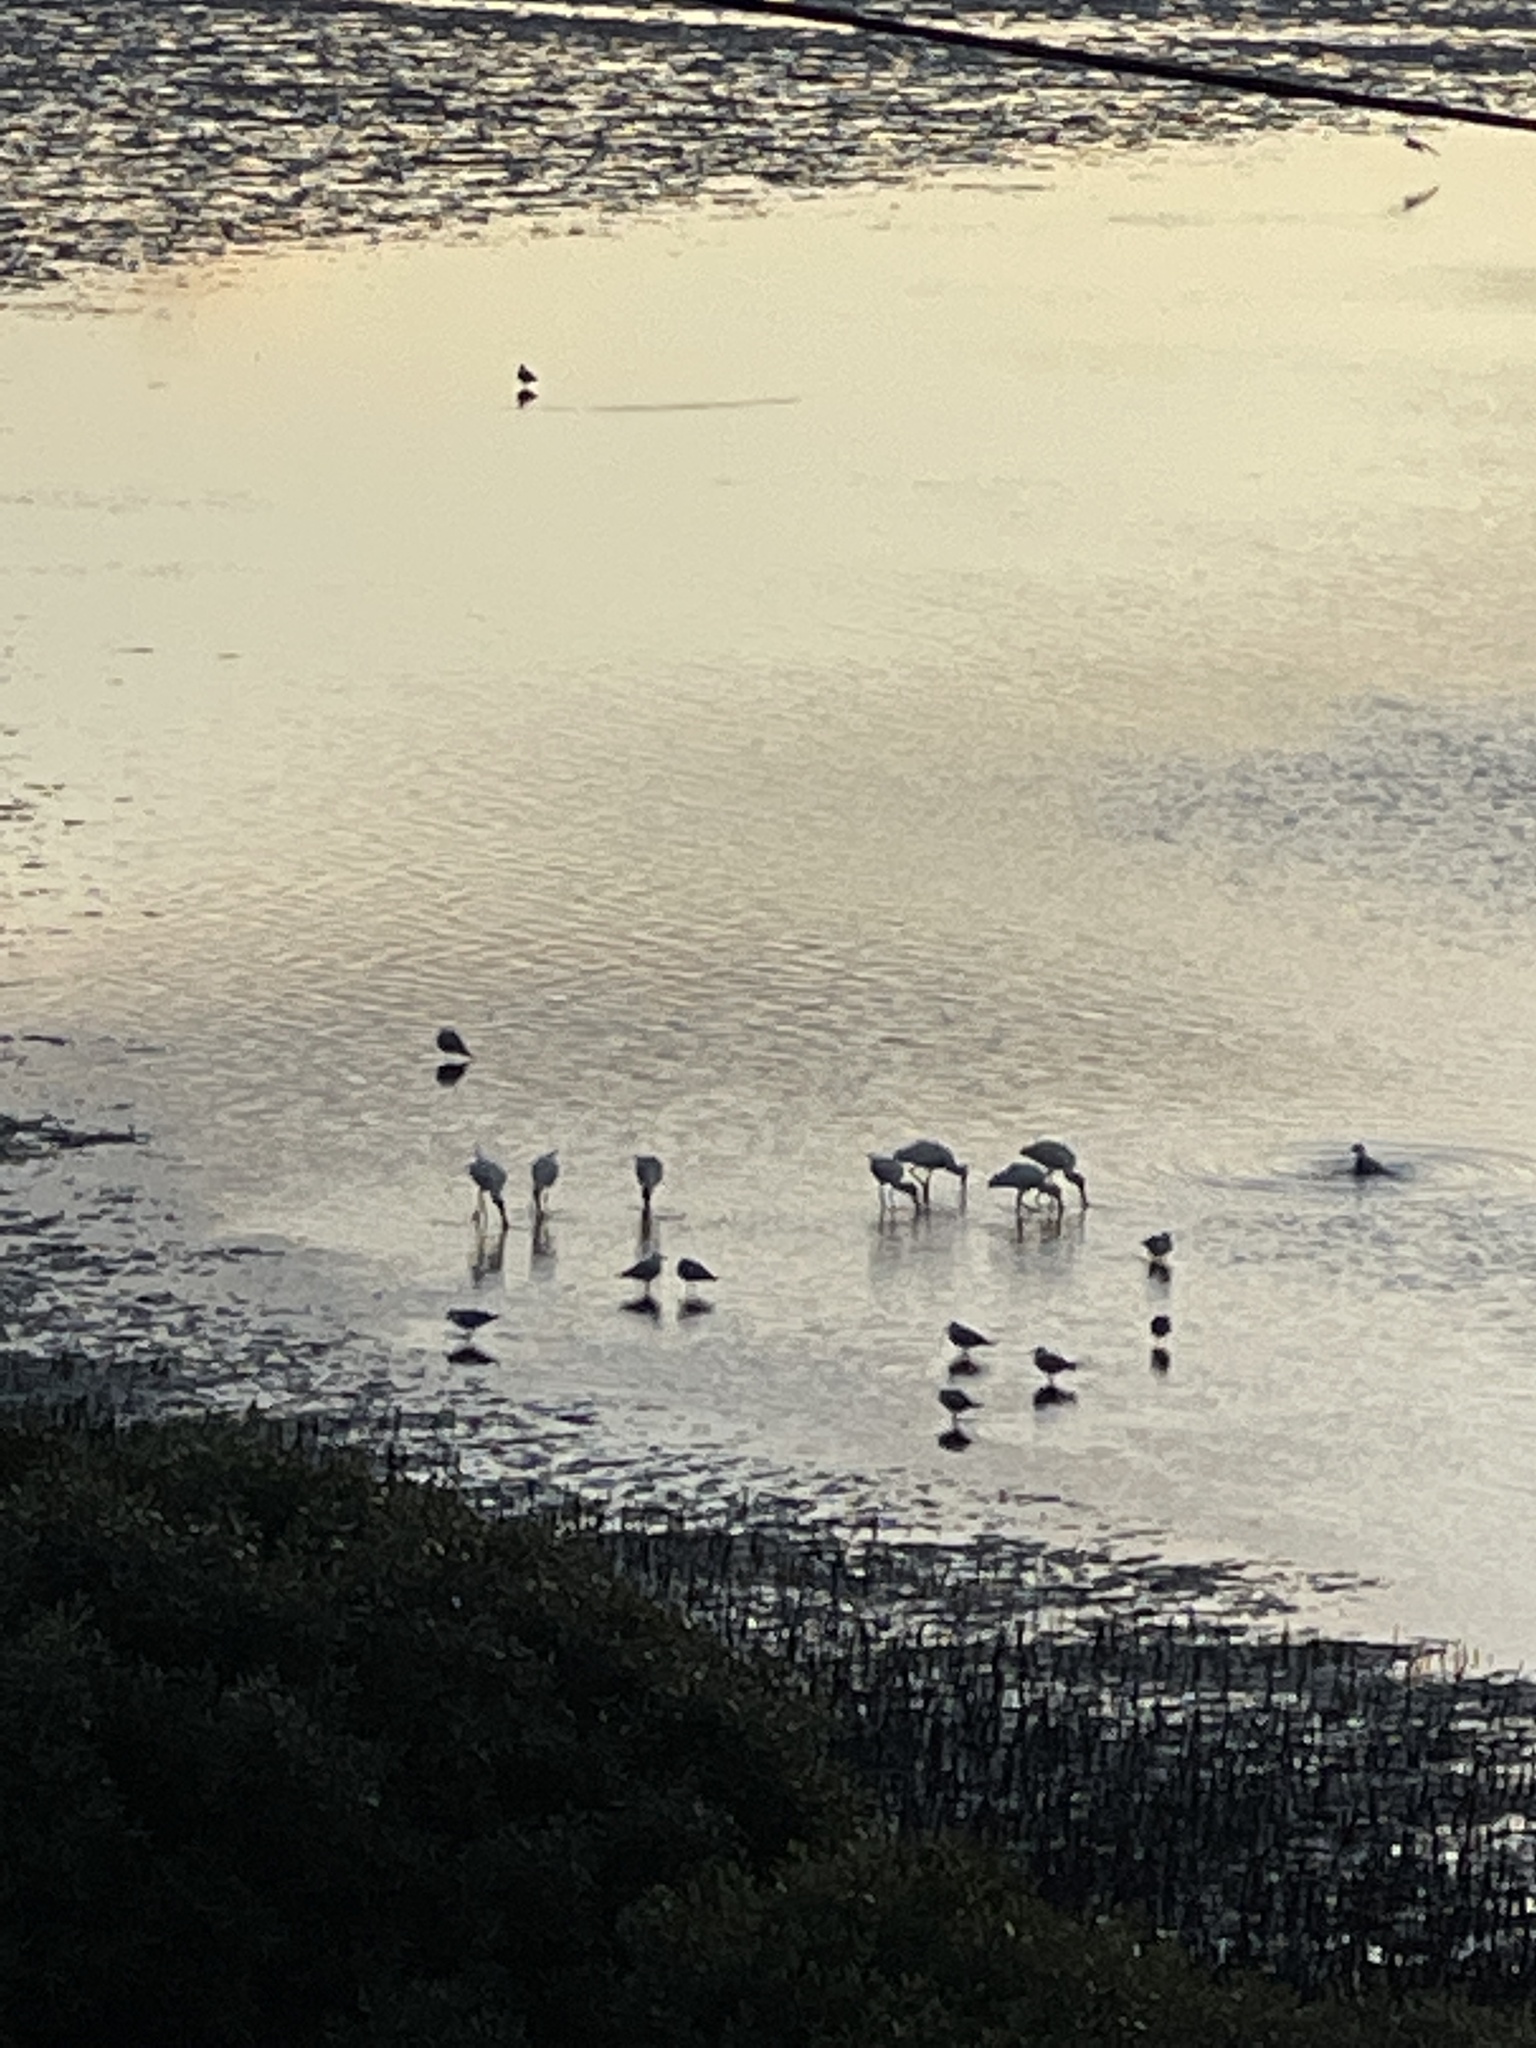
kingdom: Animalia
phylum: Chordata
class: Aves
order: Pelecaniformes
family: Threskiornithidae
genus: Platalea
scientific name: Platalea regia
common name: Royal spoonbill
